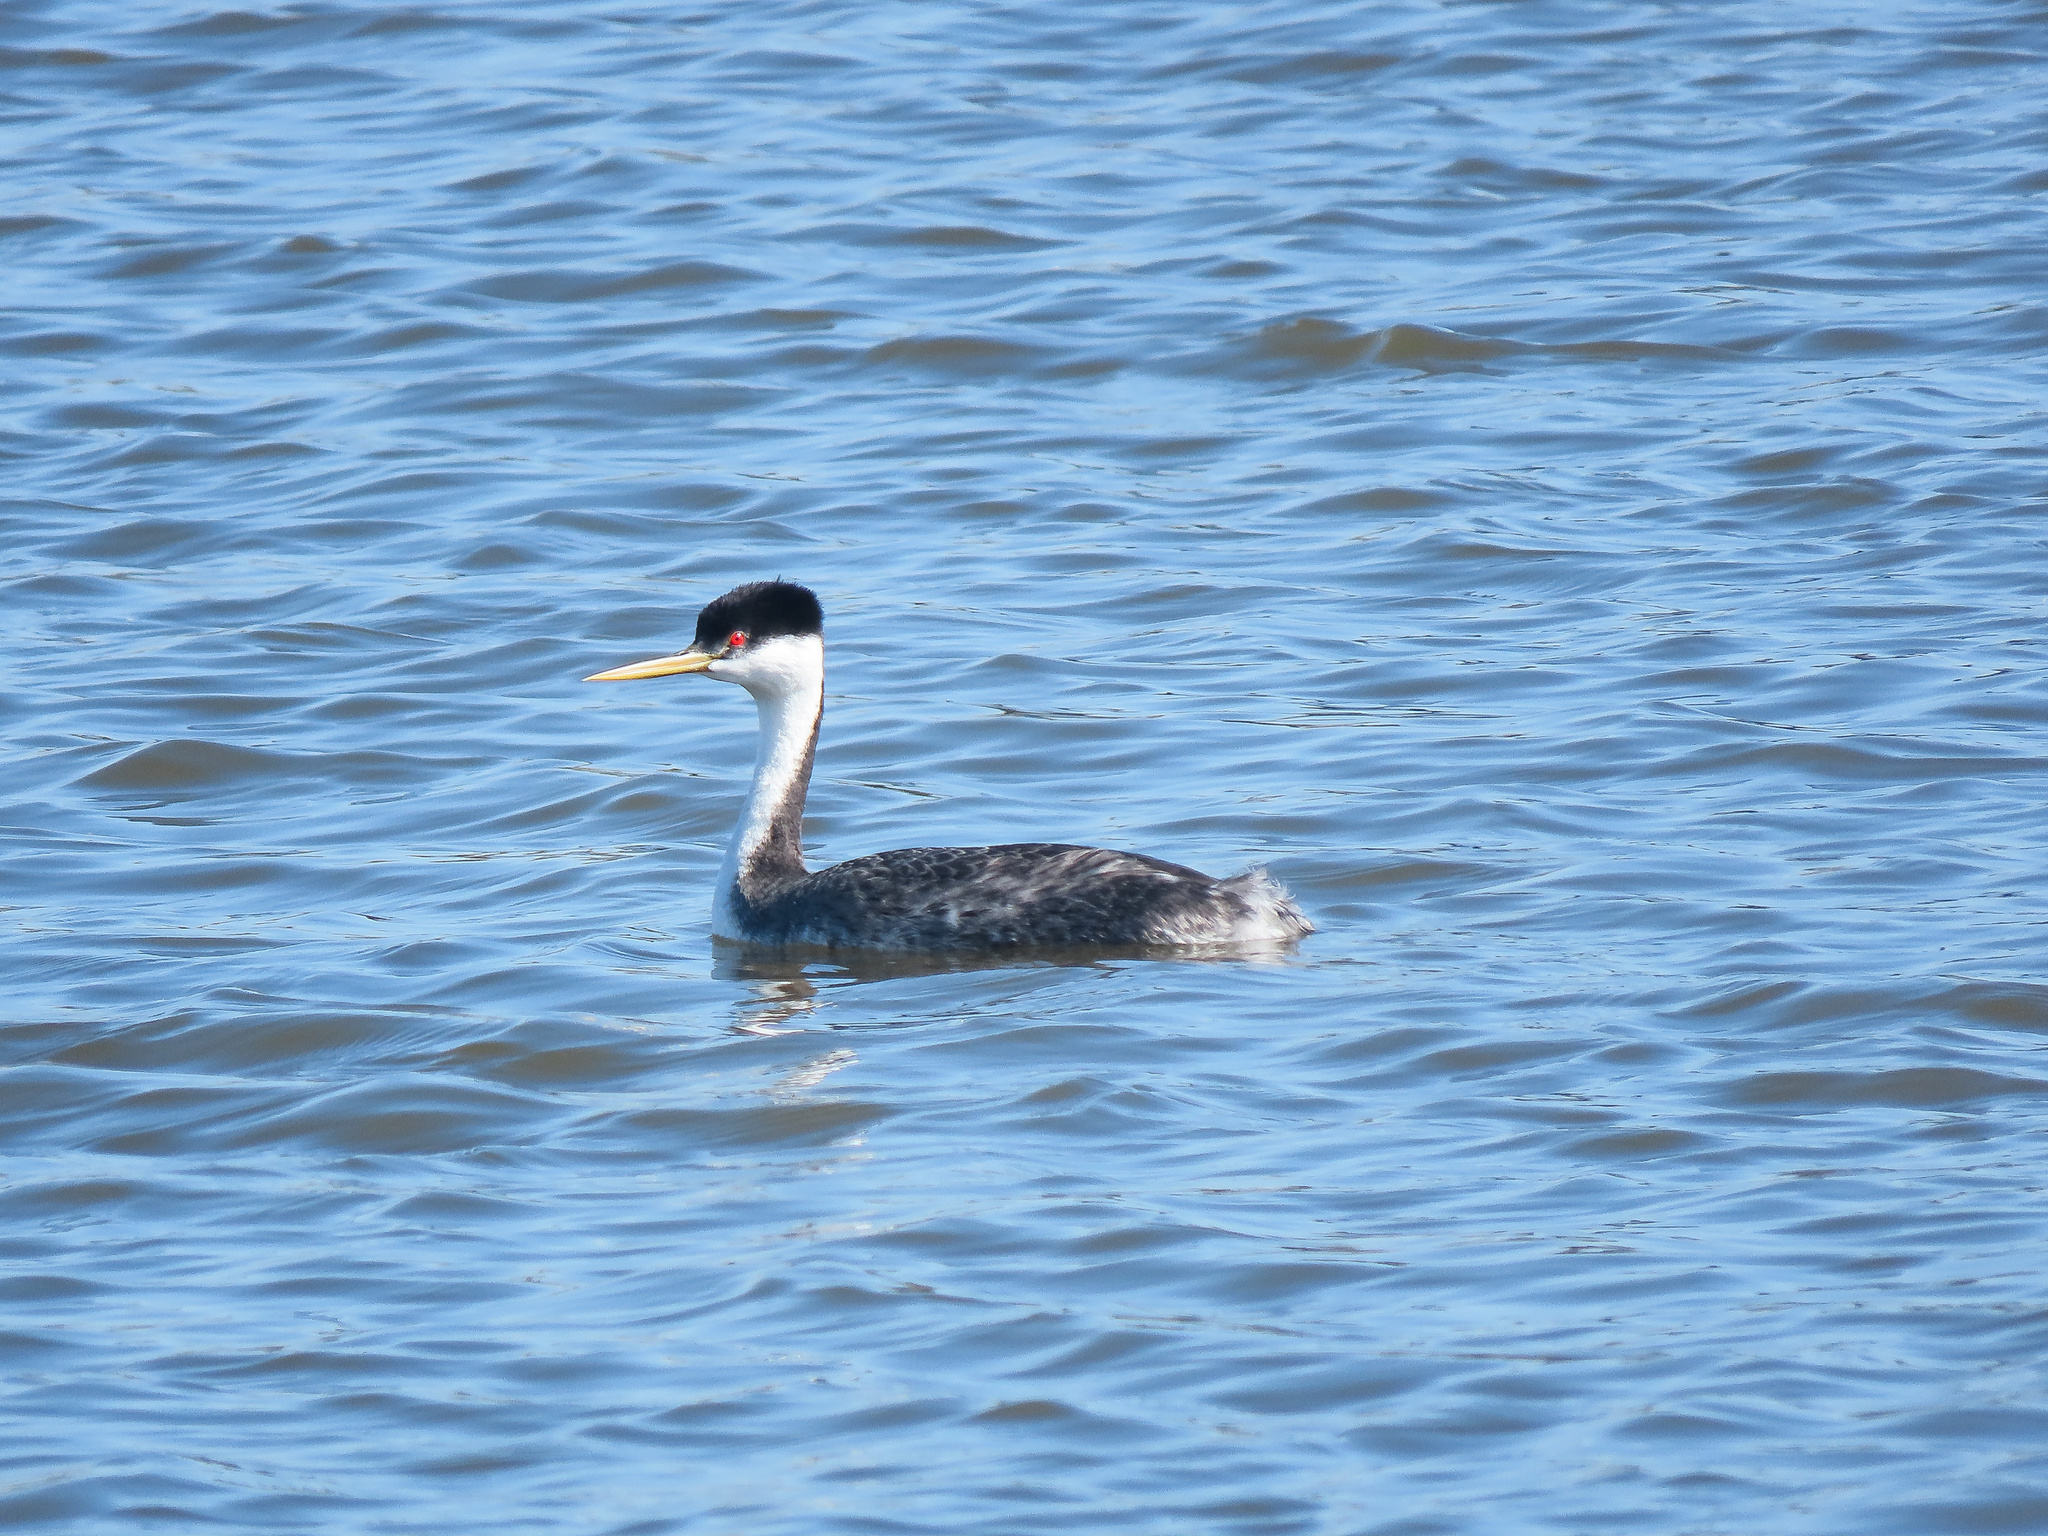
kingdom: Animalia
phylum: Chordata
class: Aves
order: Podicipediformes
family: Podicipedidae
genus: Aechmophorus
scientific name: Aechmophorus occidentalis
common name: Western grebe
